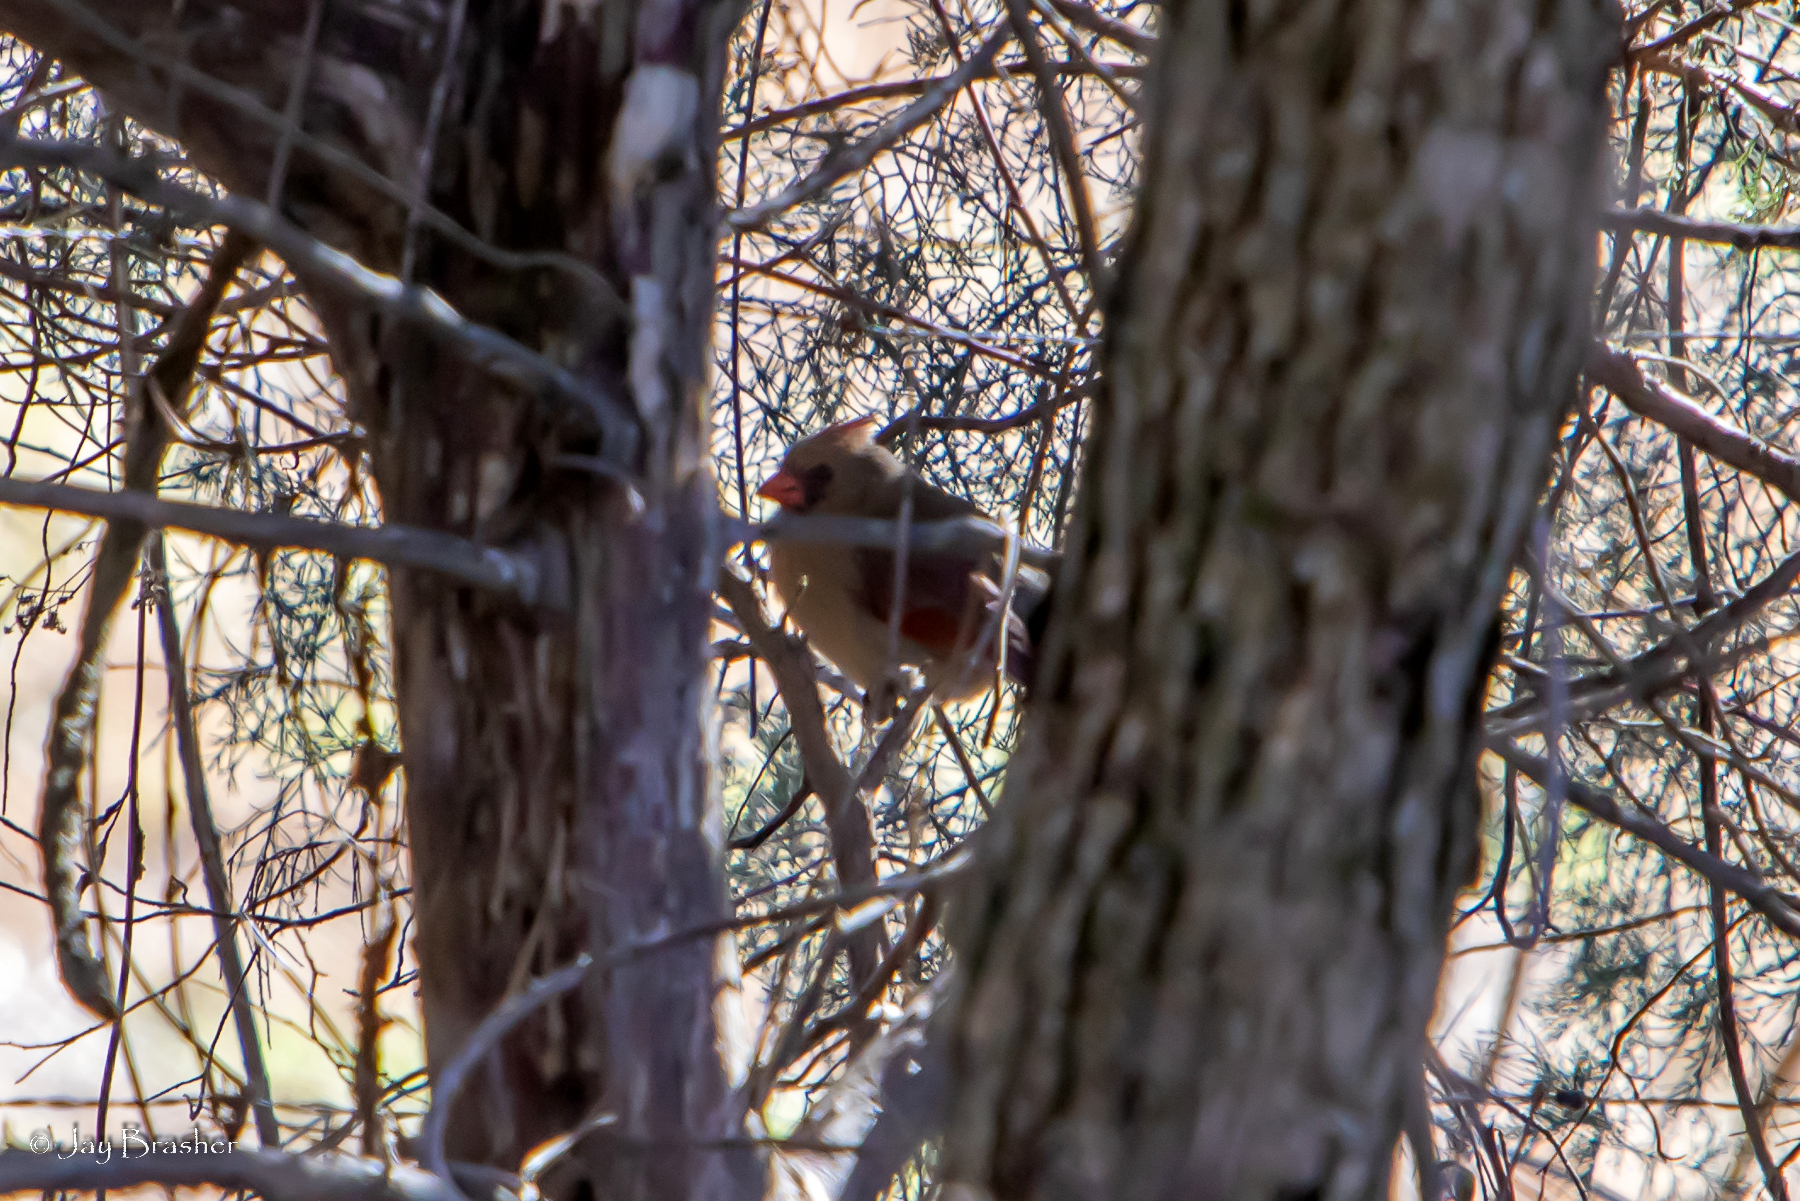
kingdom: Animalia
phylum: Chordata
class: Aves
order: Passeriformes
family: Cardinalidae
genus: Cardinalis
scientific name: Cardinalis cardinalis
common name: Northern cardinal
